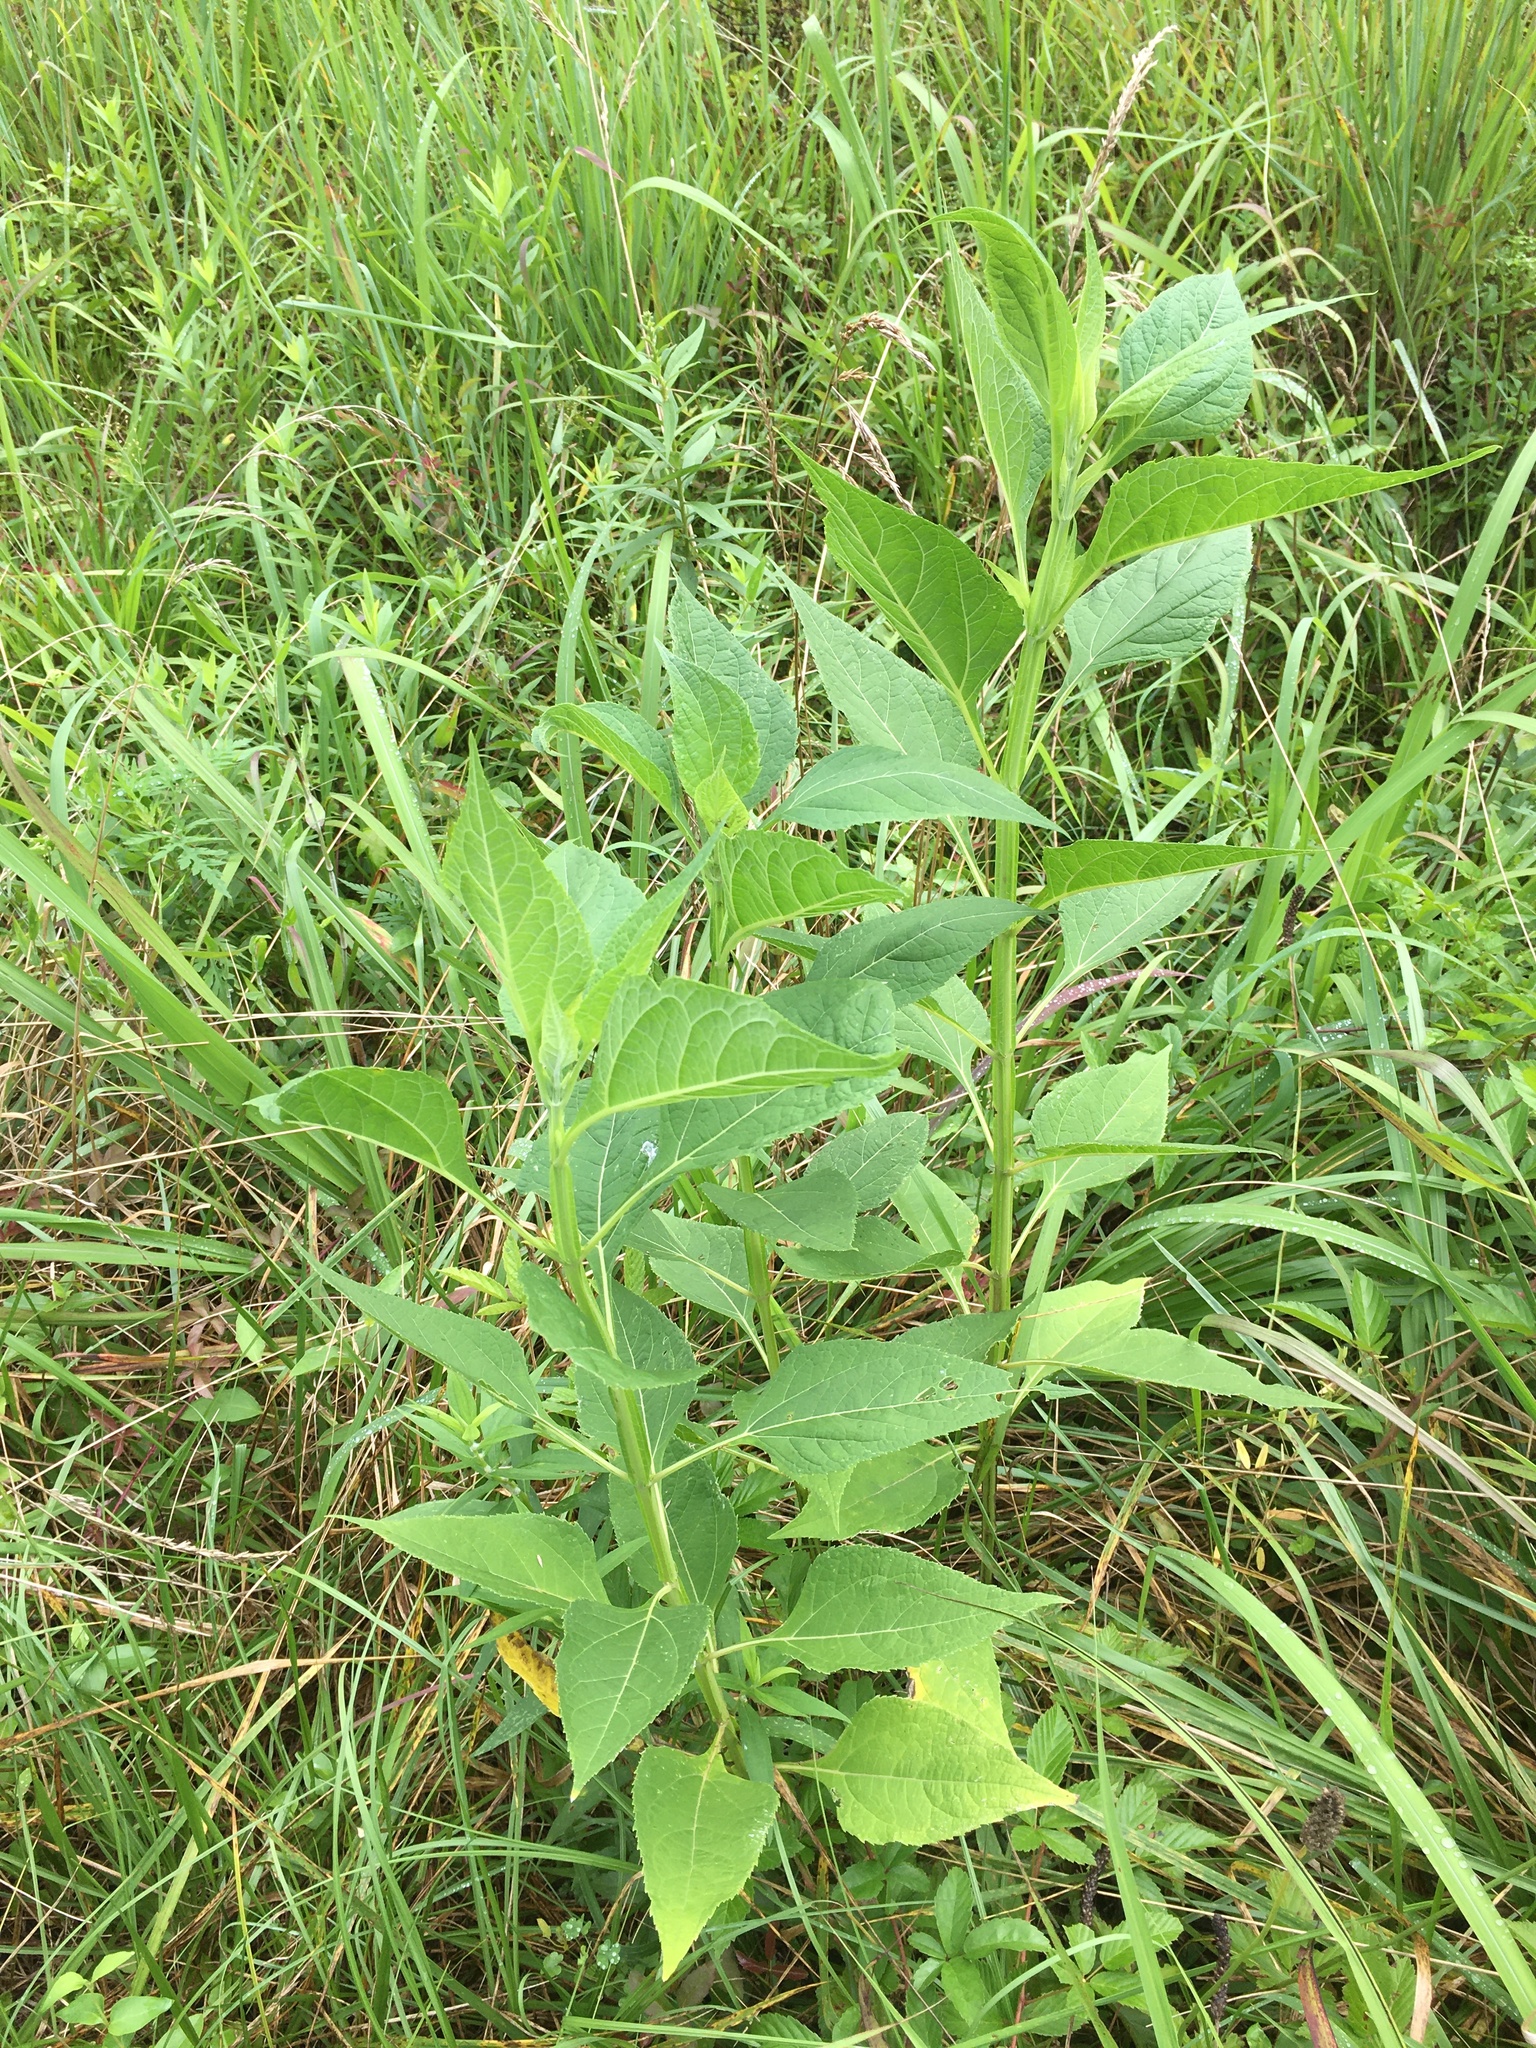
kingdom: Plantae
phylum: Tracheophyta
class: Magnoliopsida
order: Asterales
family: Asteraceae
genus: Verbesina
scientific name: Verbesina occidentalis
